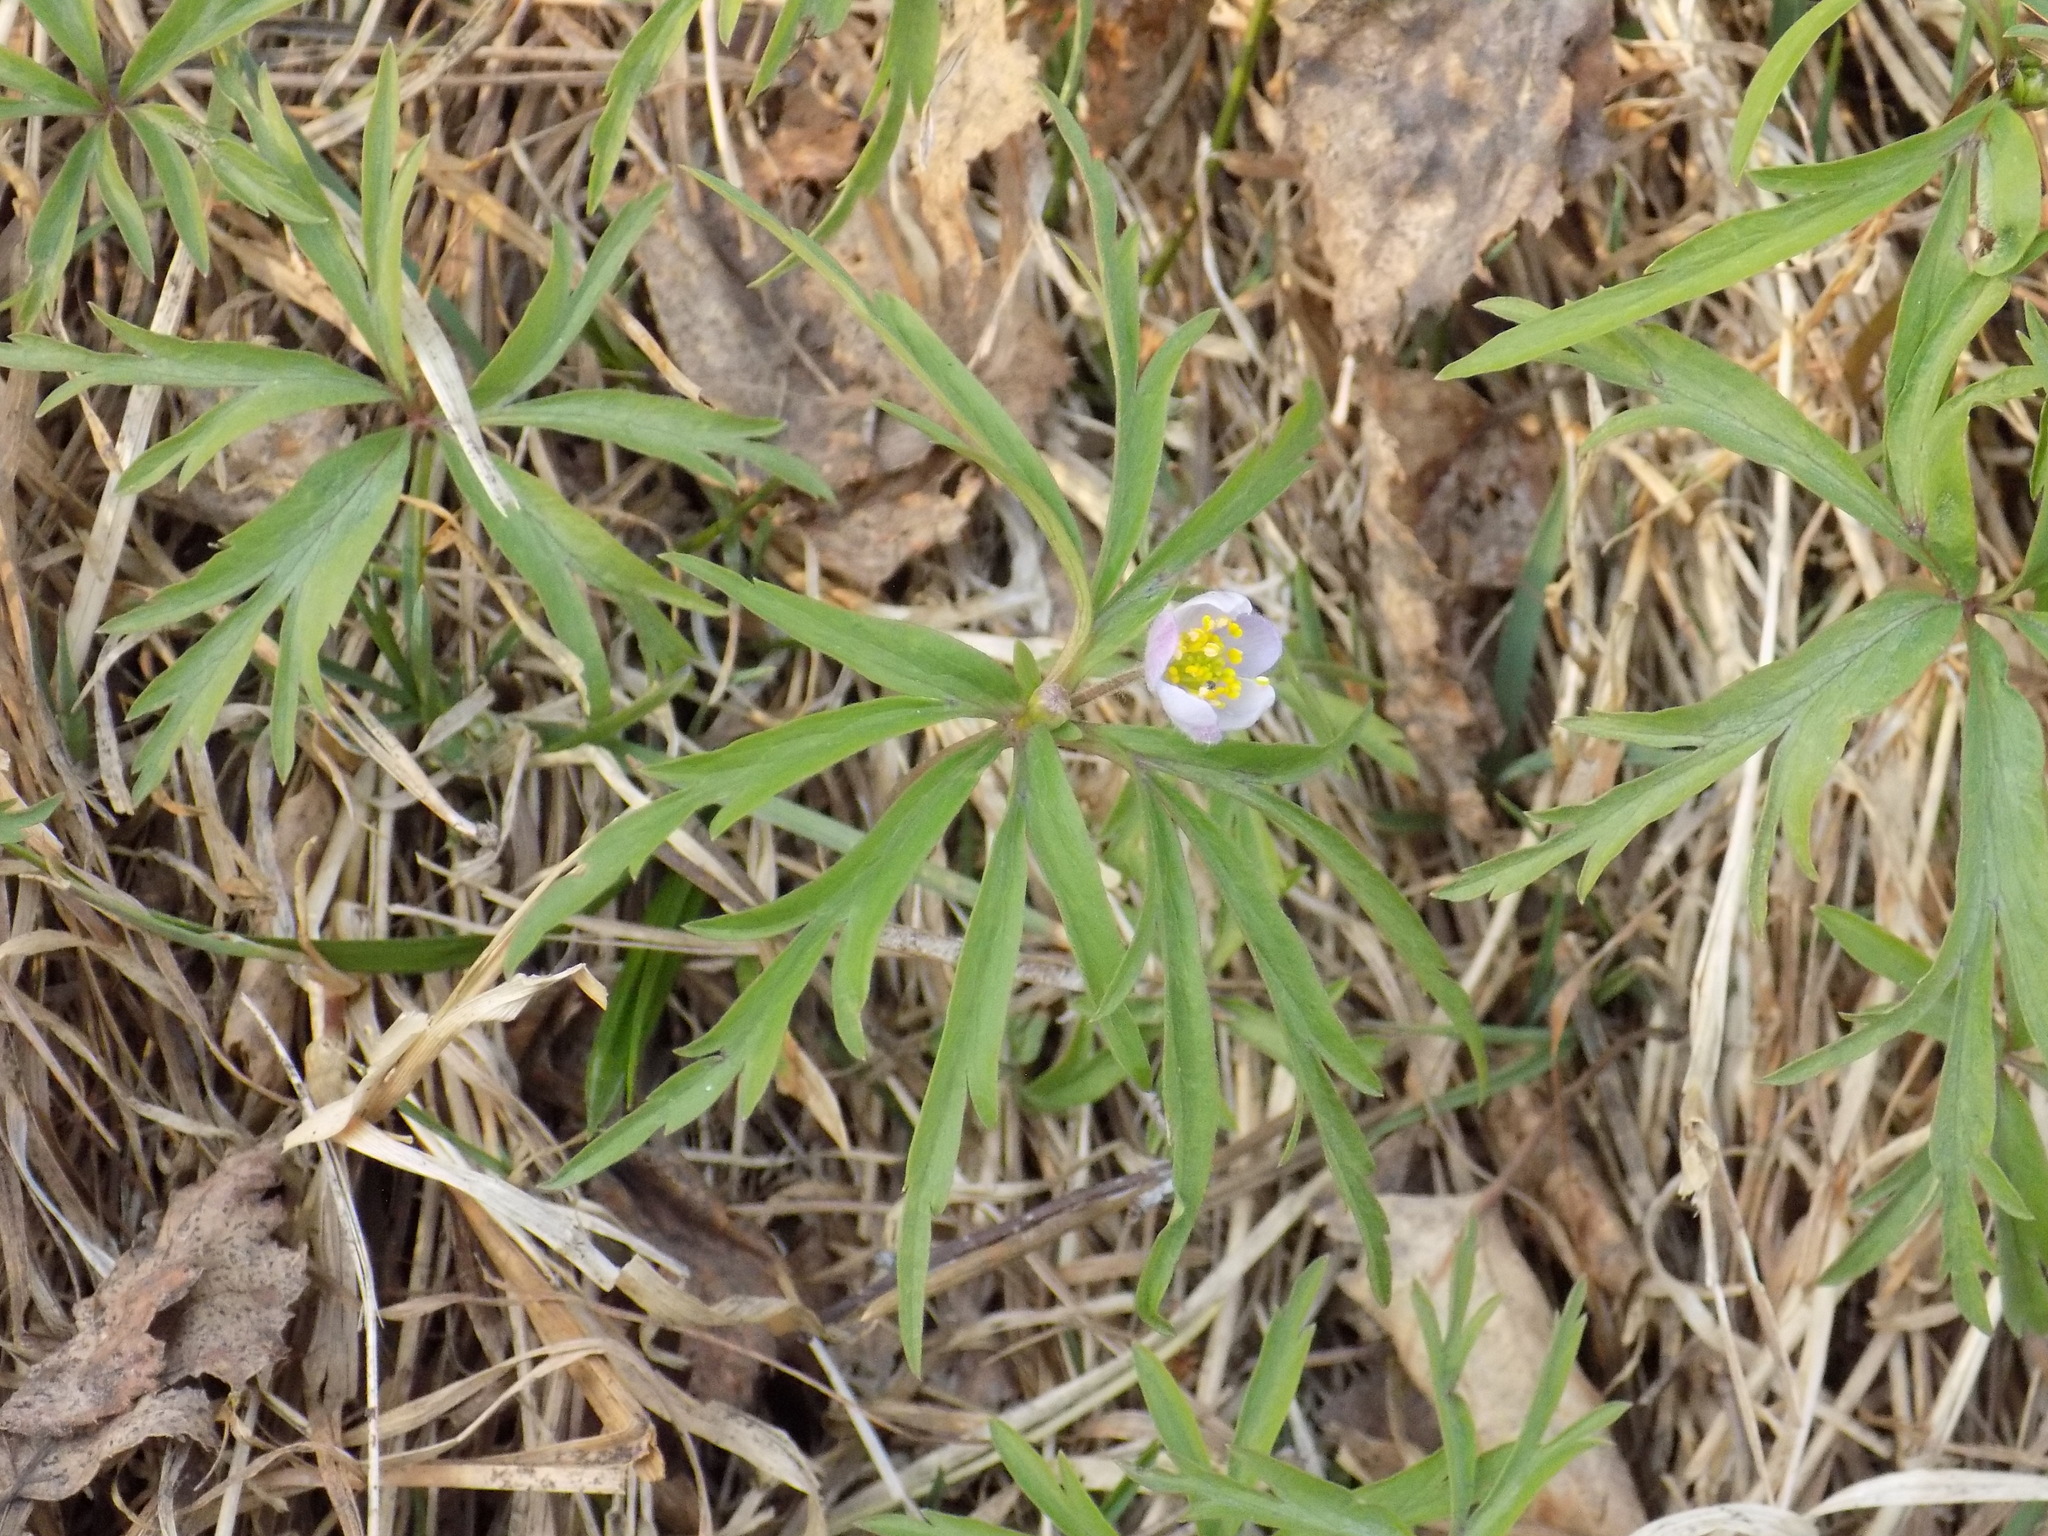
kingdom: Plantae
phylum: Tracheophyta
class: Magnoliopsida
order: Ranunculales
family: Ranunculaceae
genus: Anemone
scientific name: Anemone caerulea
